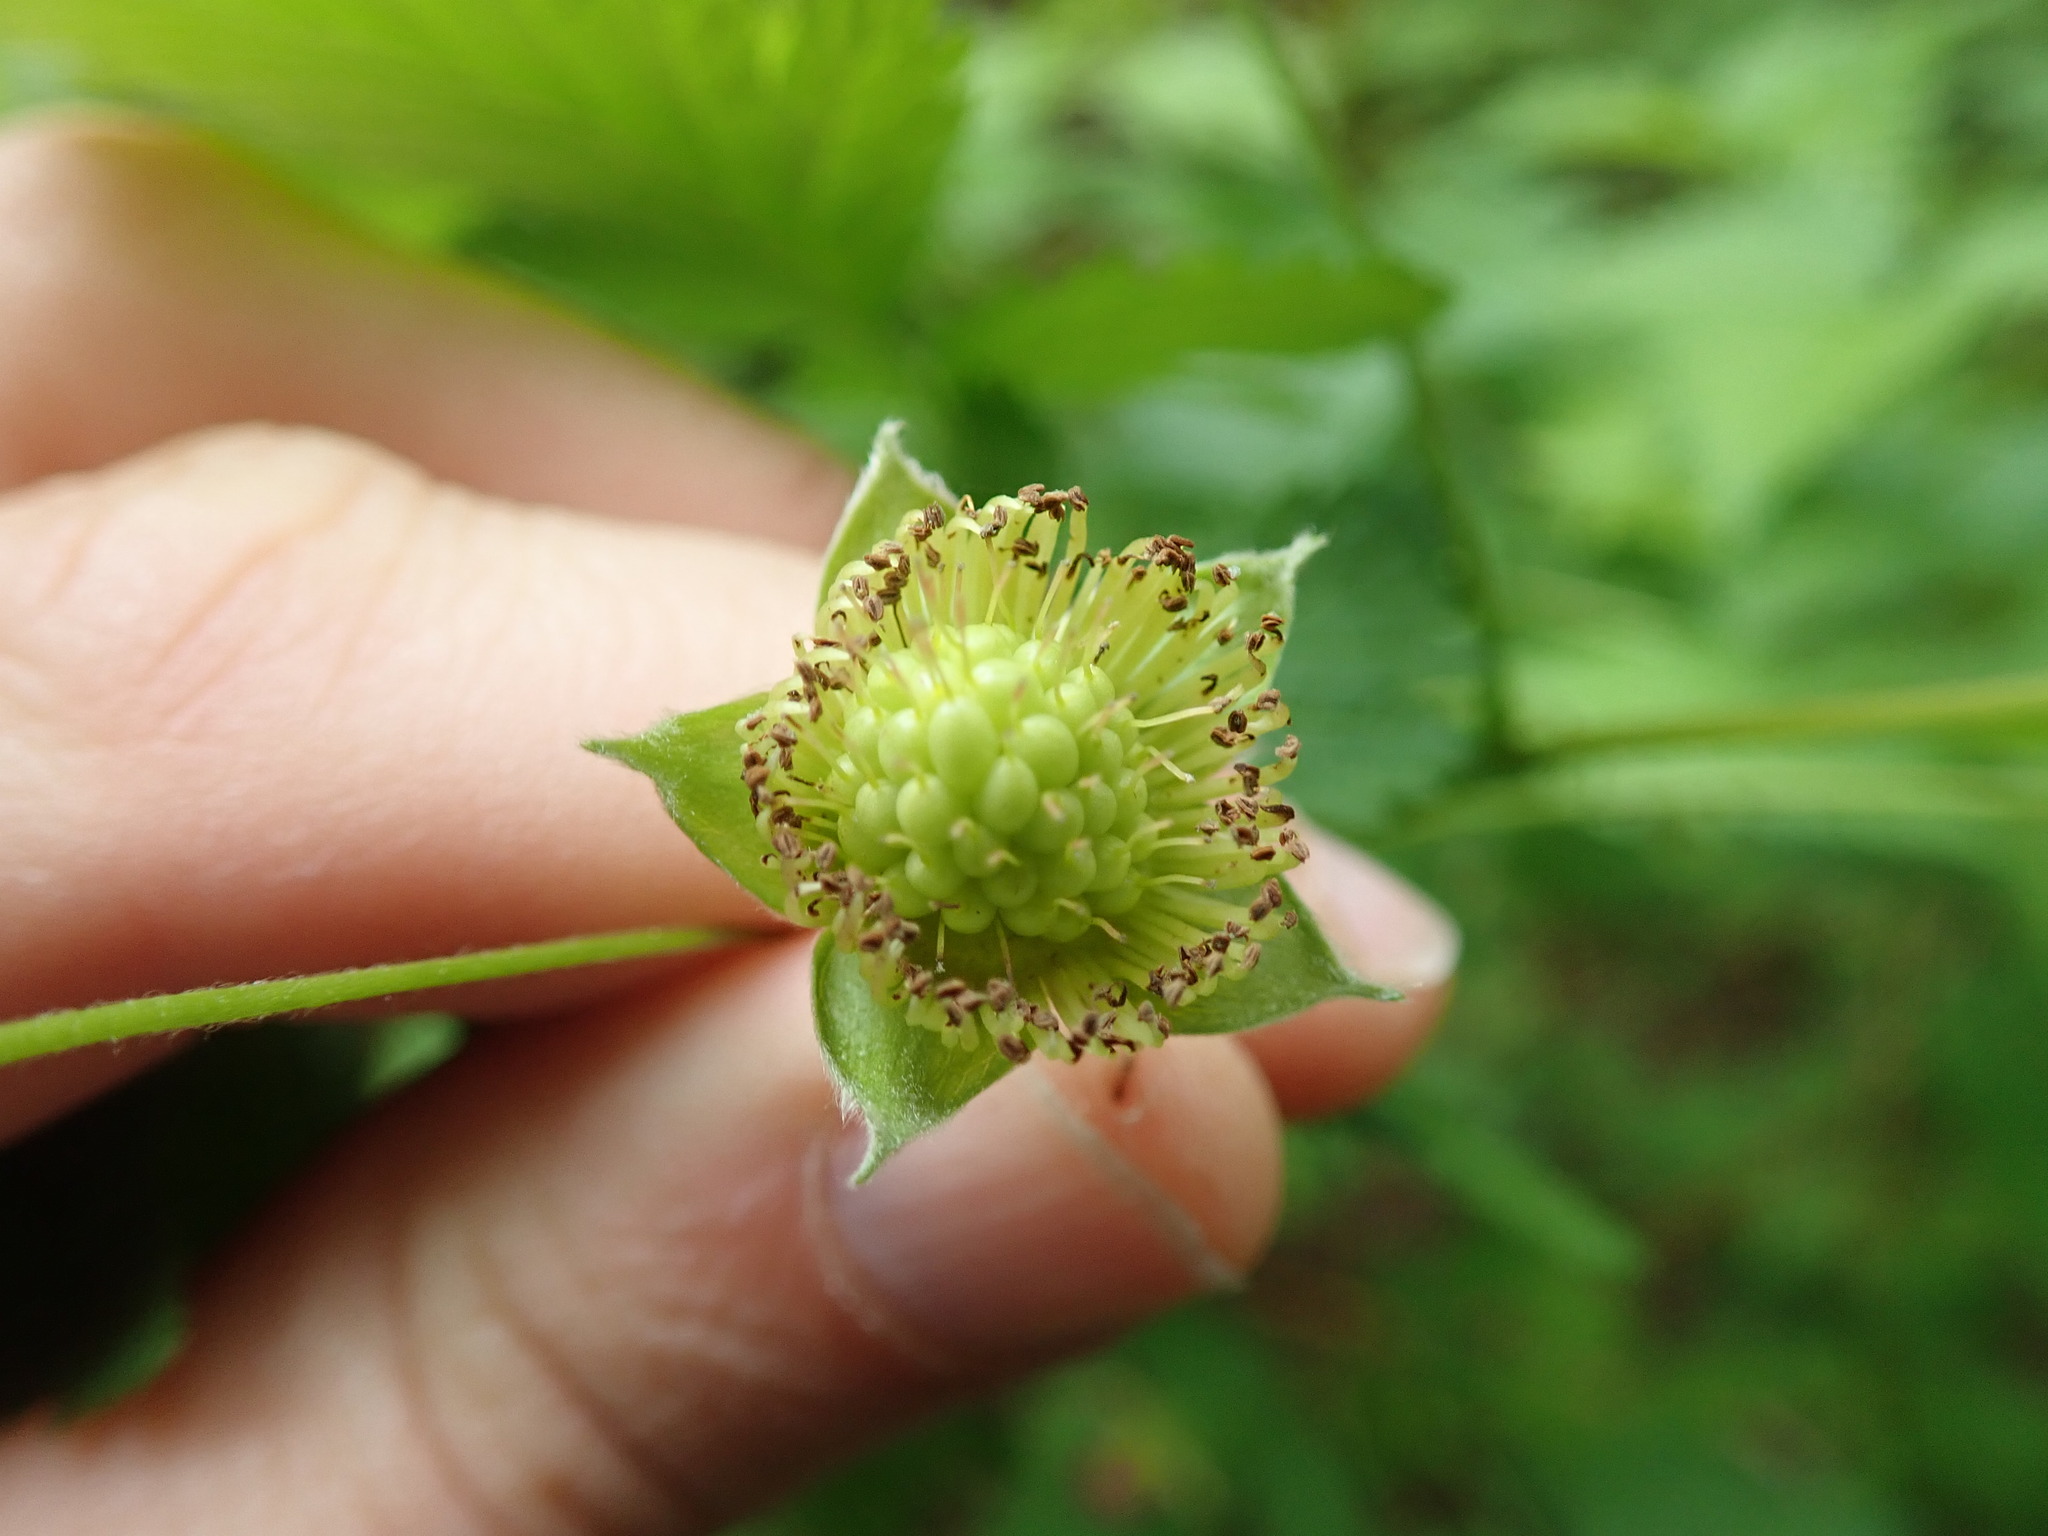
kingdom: Plantae
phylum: Tracheophyta
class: Magnoliopsida
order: Rosales
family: Rosaceae
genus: Rubus
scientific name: Rubus spectabilis
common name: Salmonberry
